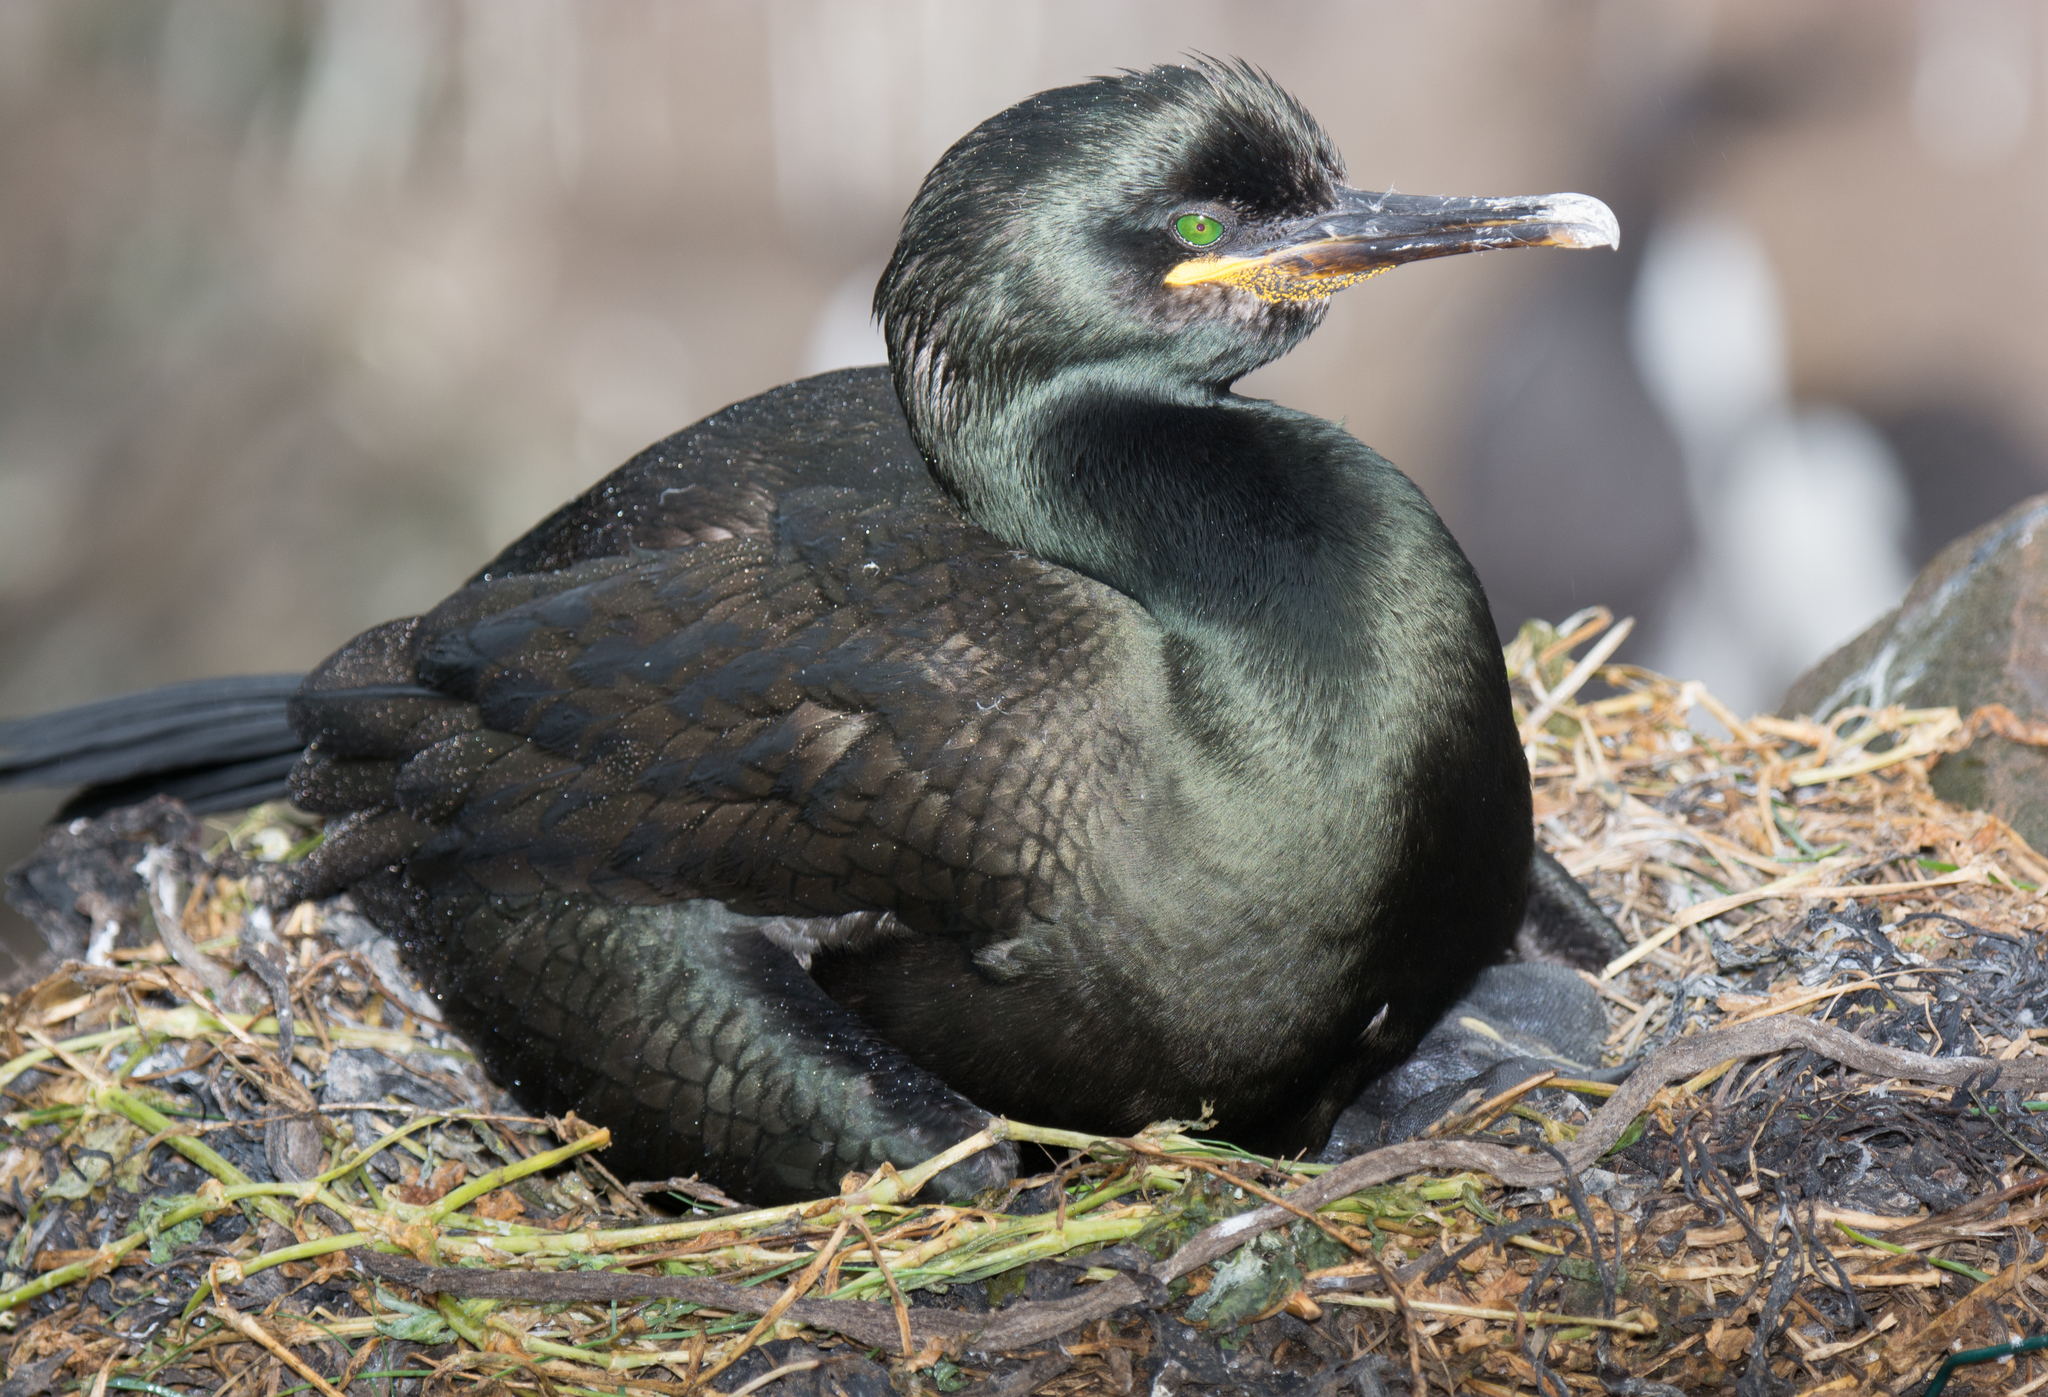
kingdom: Animalia
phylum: Chordata
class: Aves
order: Suliformes
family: Phalacrocoracidae
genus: Phalacrocorax
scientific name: Phalacrocorax aristotelis
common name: European shag
